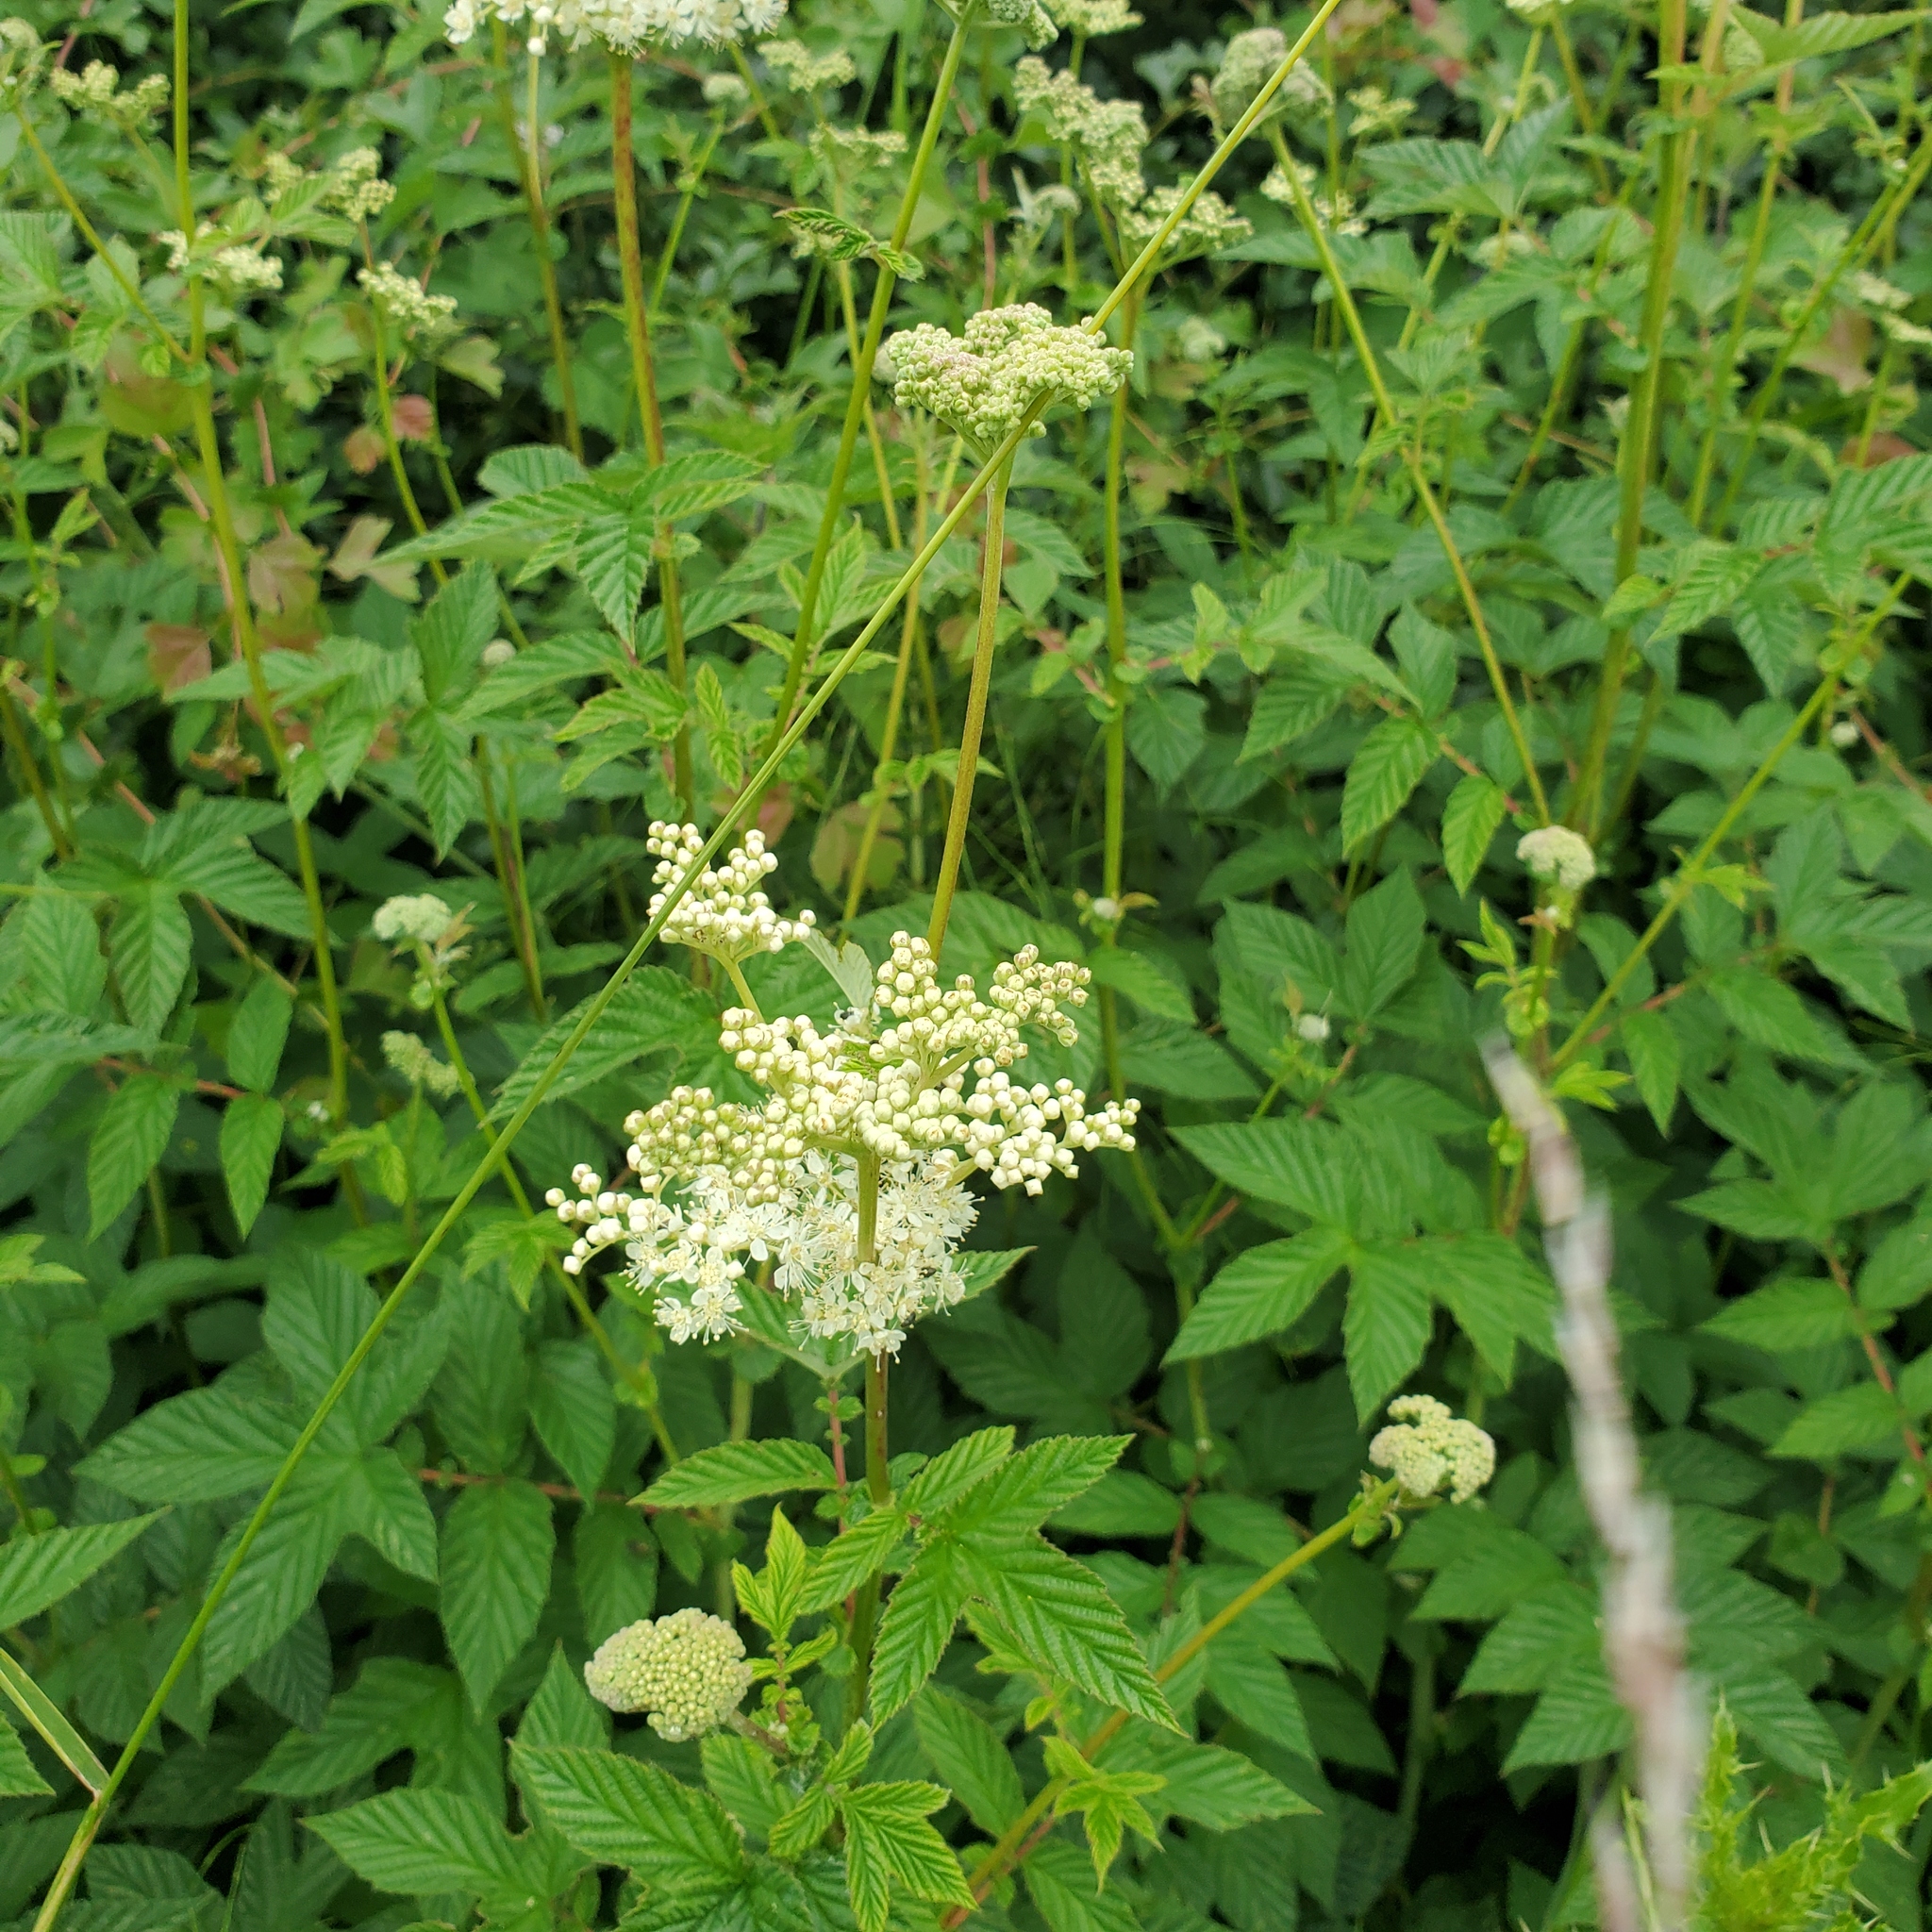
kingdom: Plantae
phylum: Tracheophyta
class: Magnoliopsida
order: Rosales
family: Rosaceae
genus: Filipendula
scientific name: Filipendula ulmaria
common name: Meadowsweet
